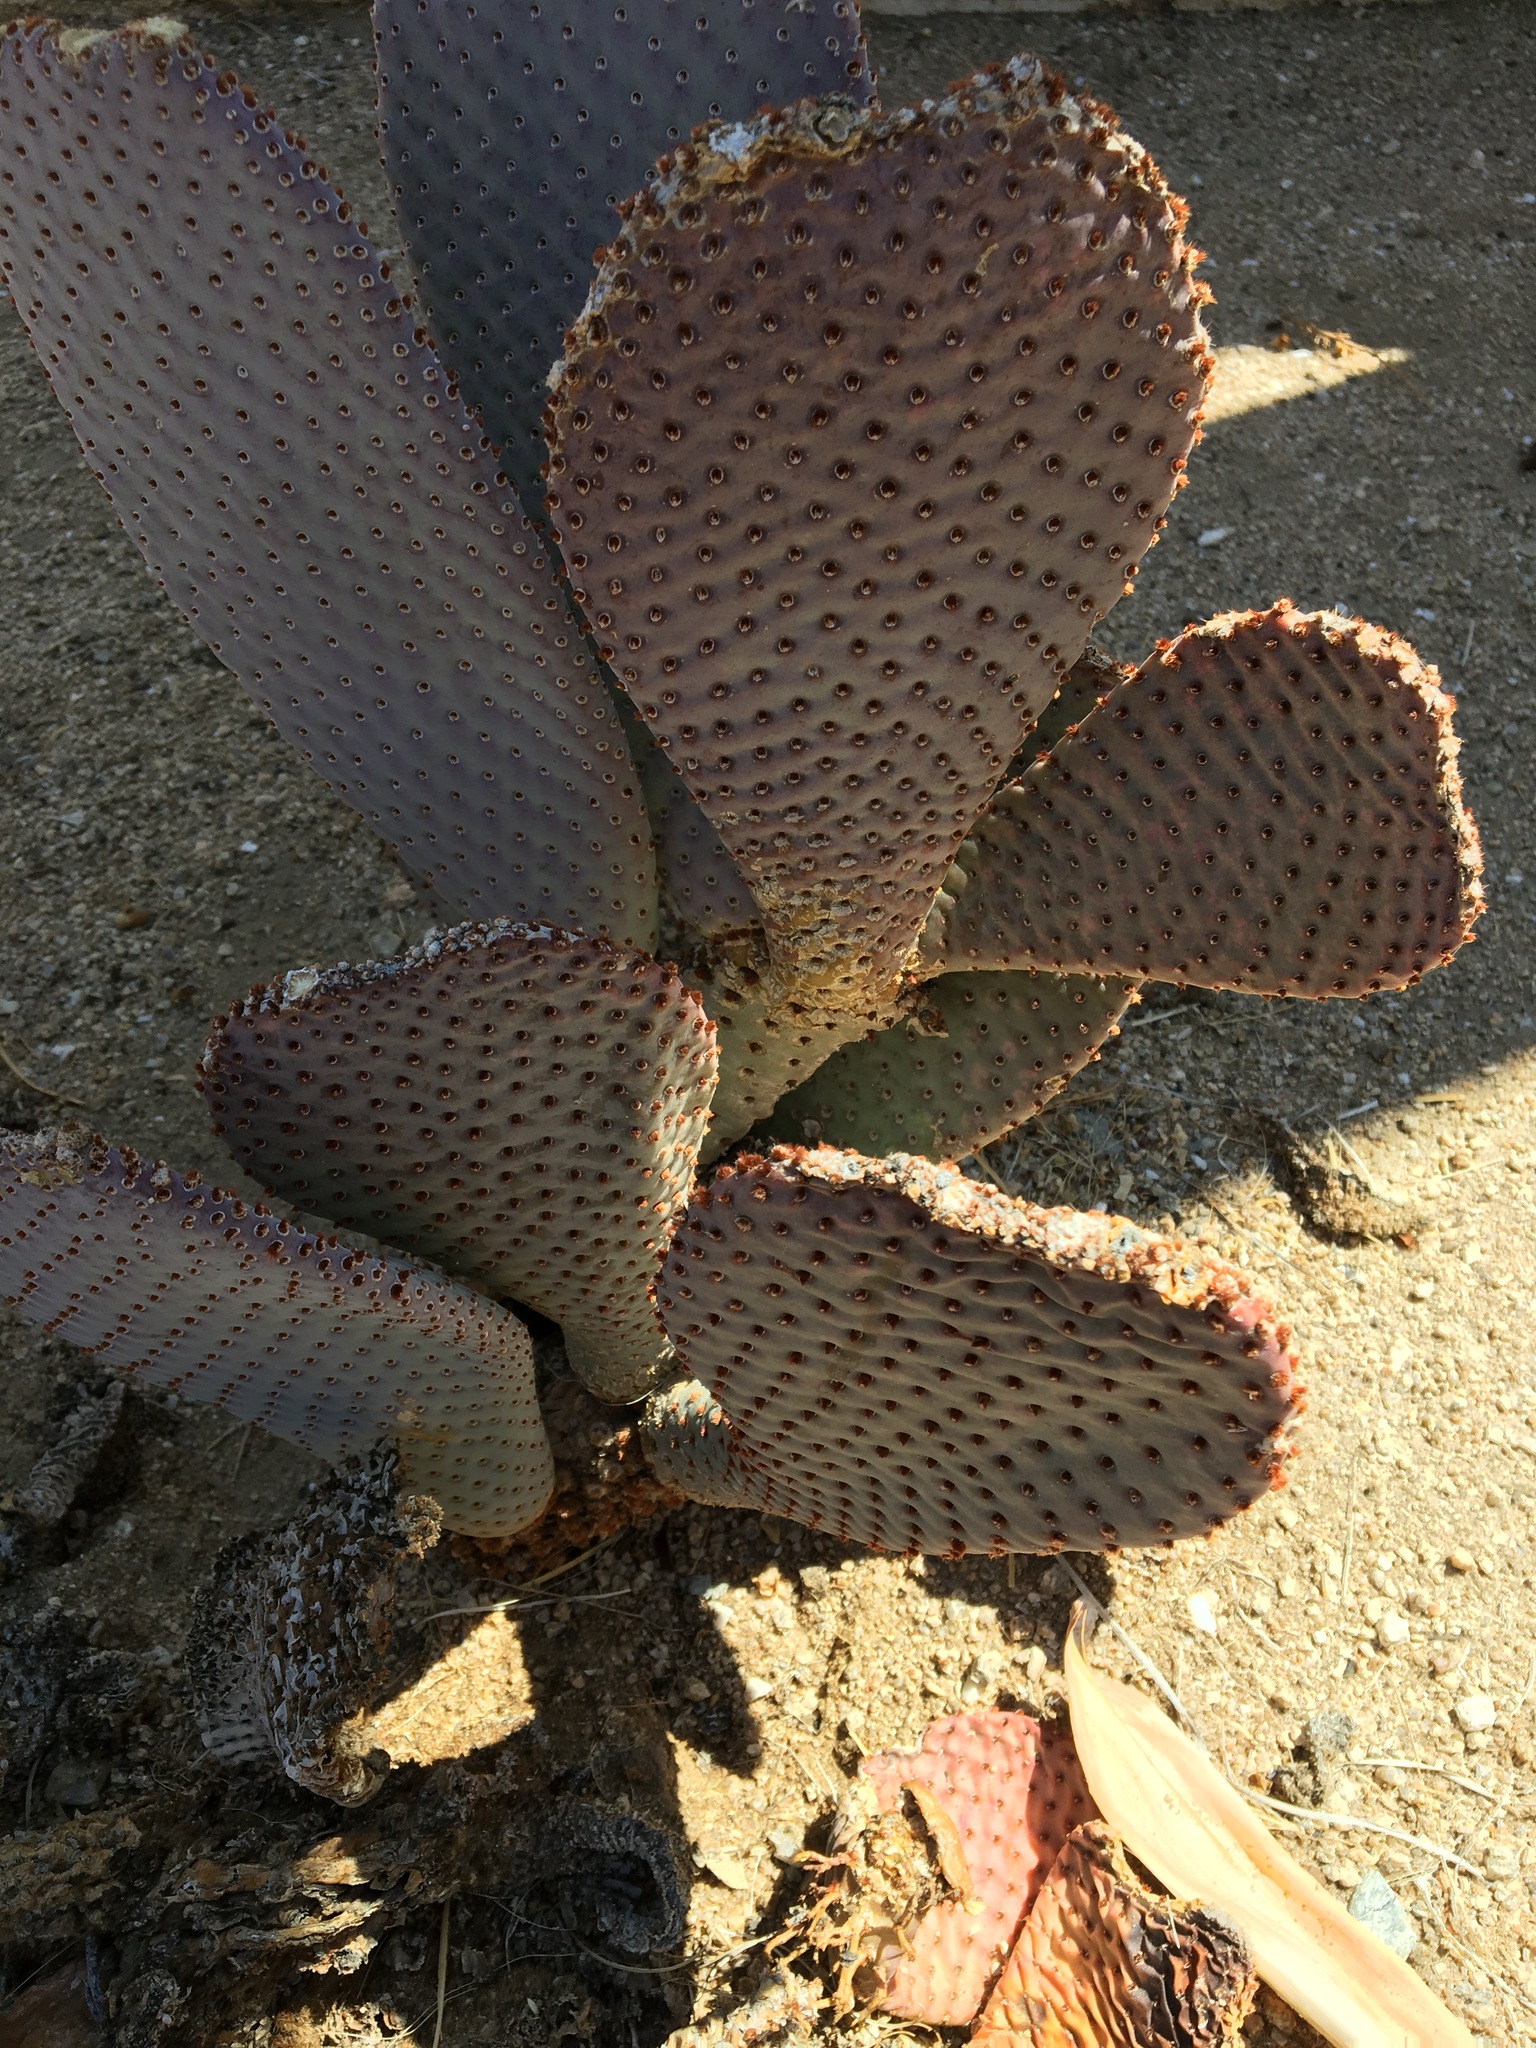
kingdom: Plantae
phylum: Tracheophyta
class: Magnoliopsida
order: Caryophyllales
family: Cactaceae
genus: Opuntia
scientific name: Opuntia basilaris
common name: Beavertail prickly-pear
